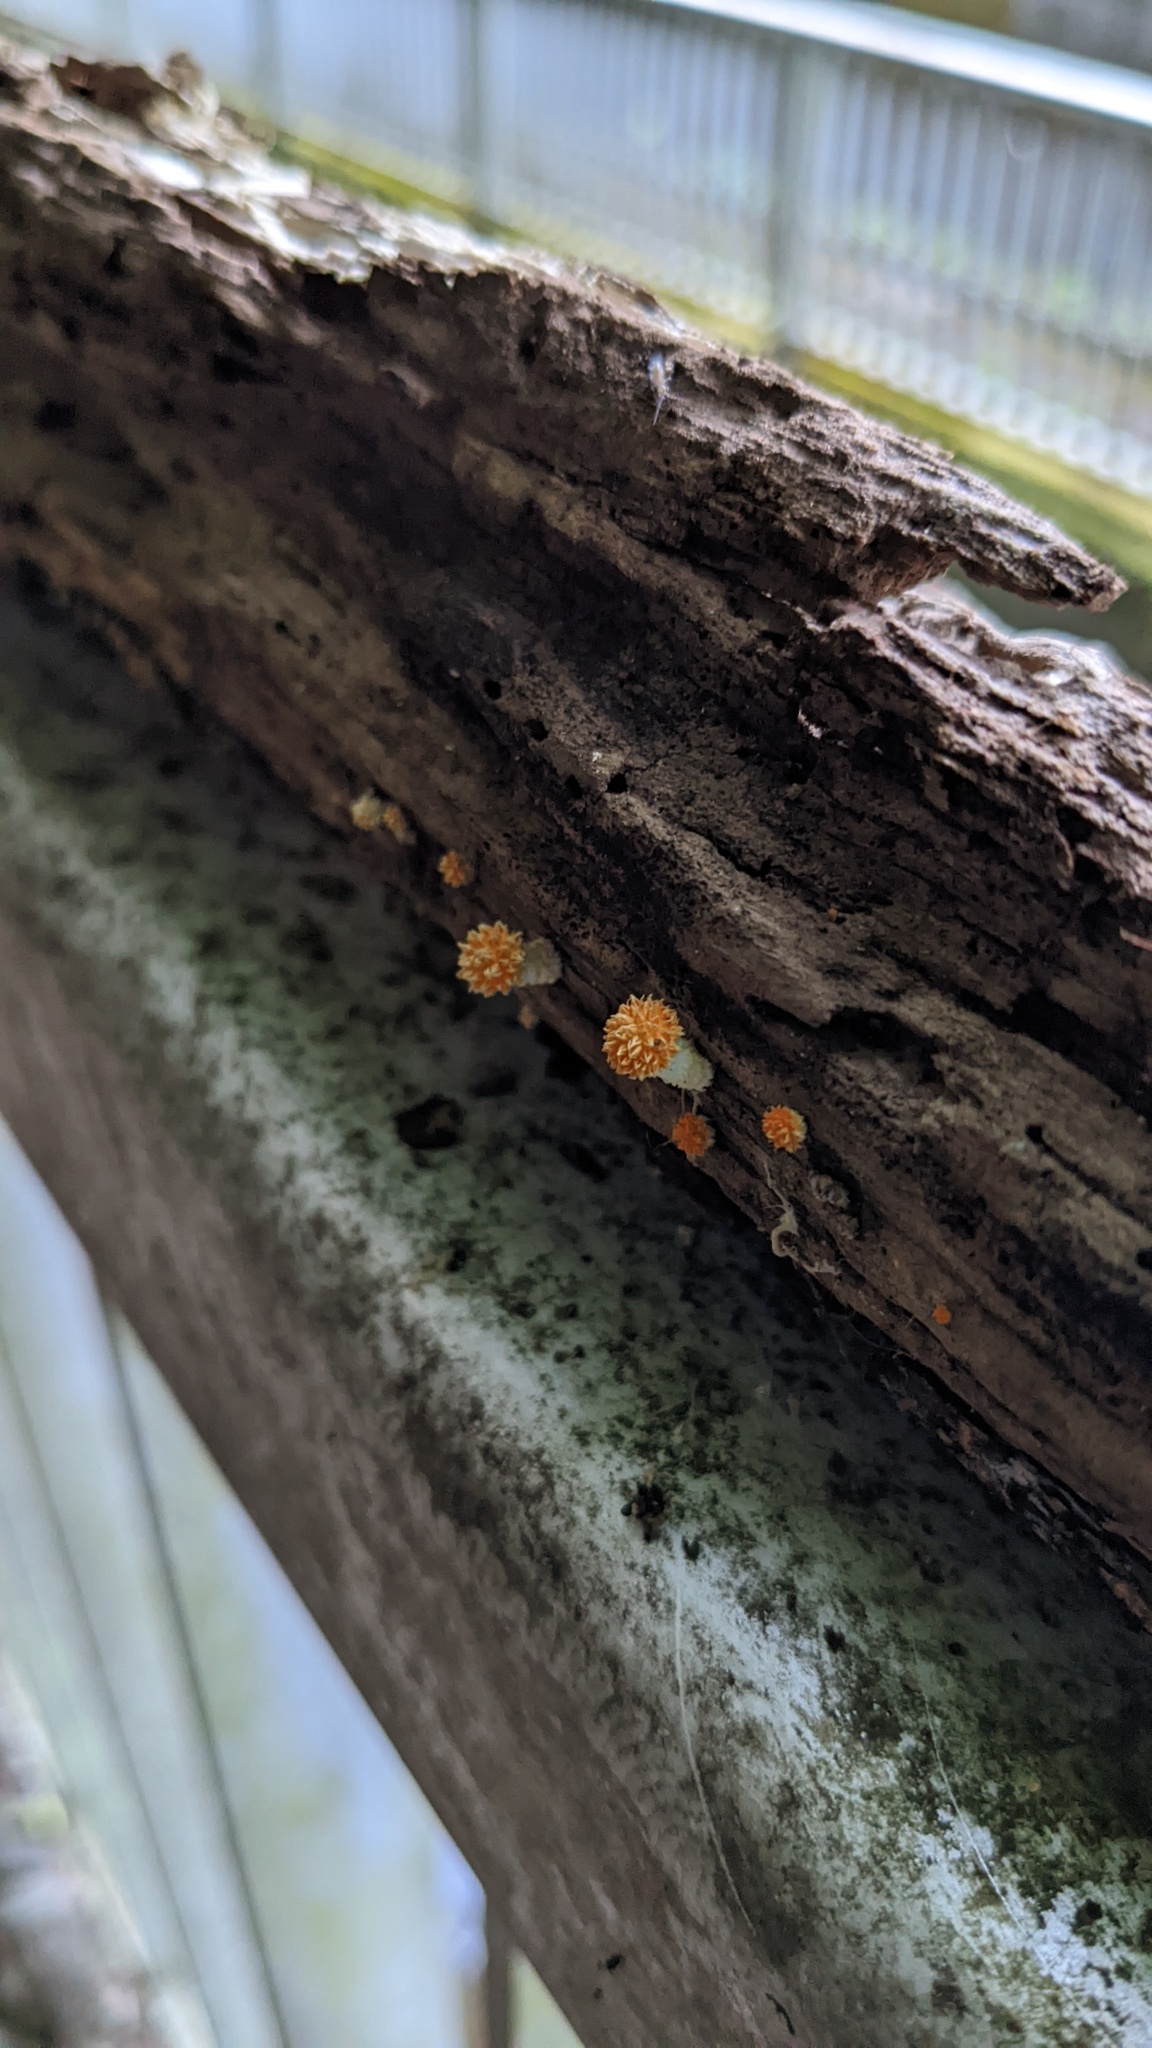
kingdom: Fungi
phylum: Basidiomycota
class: Agaricomycetes
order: Agaricales
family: Physalacriaceae
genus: Cyptotrama
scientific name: Cyptotrama asprata
